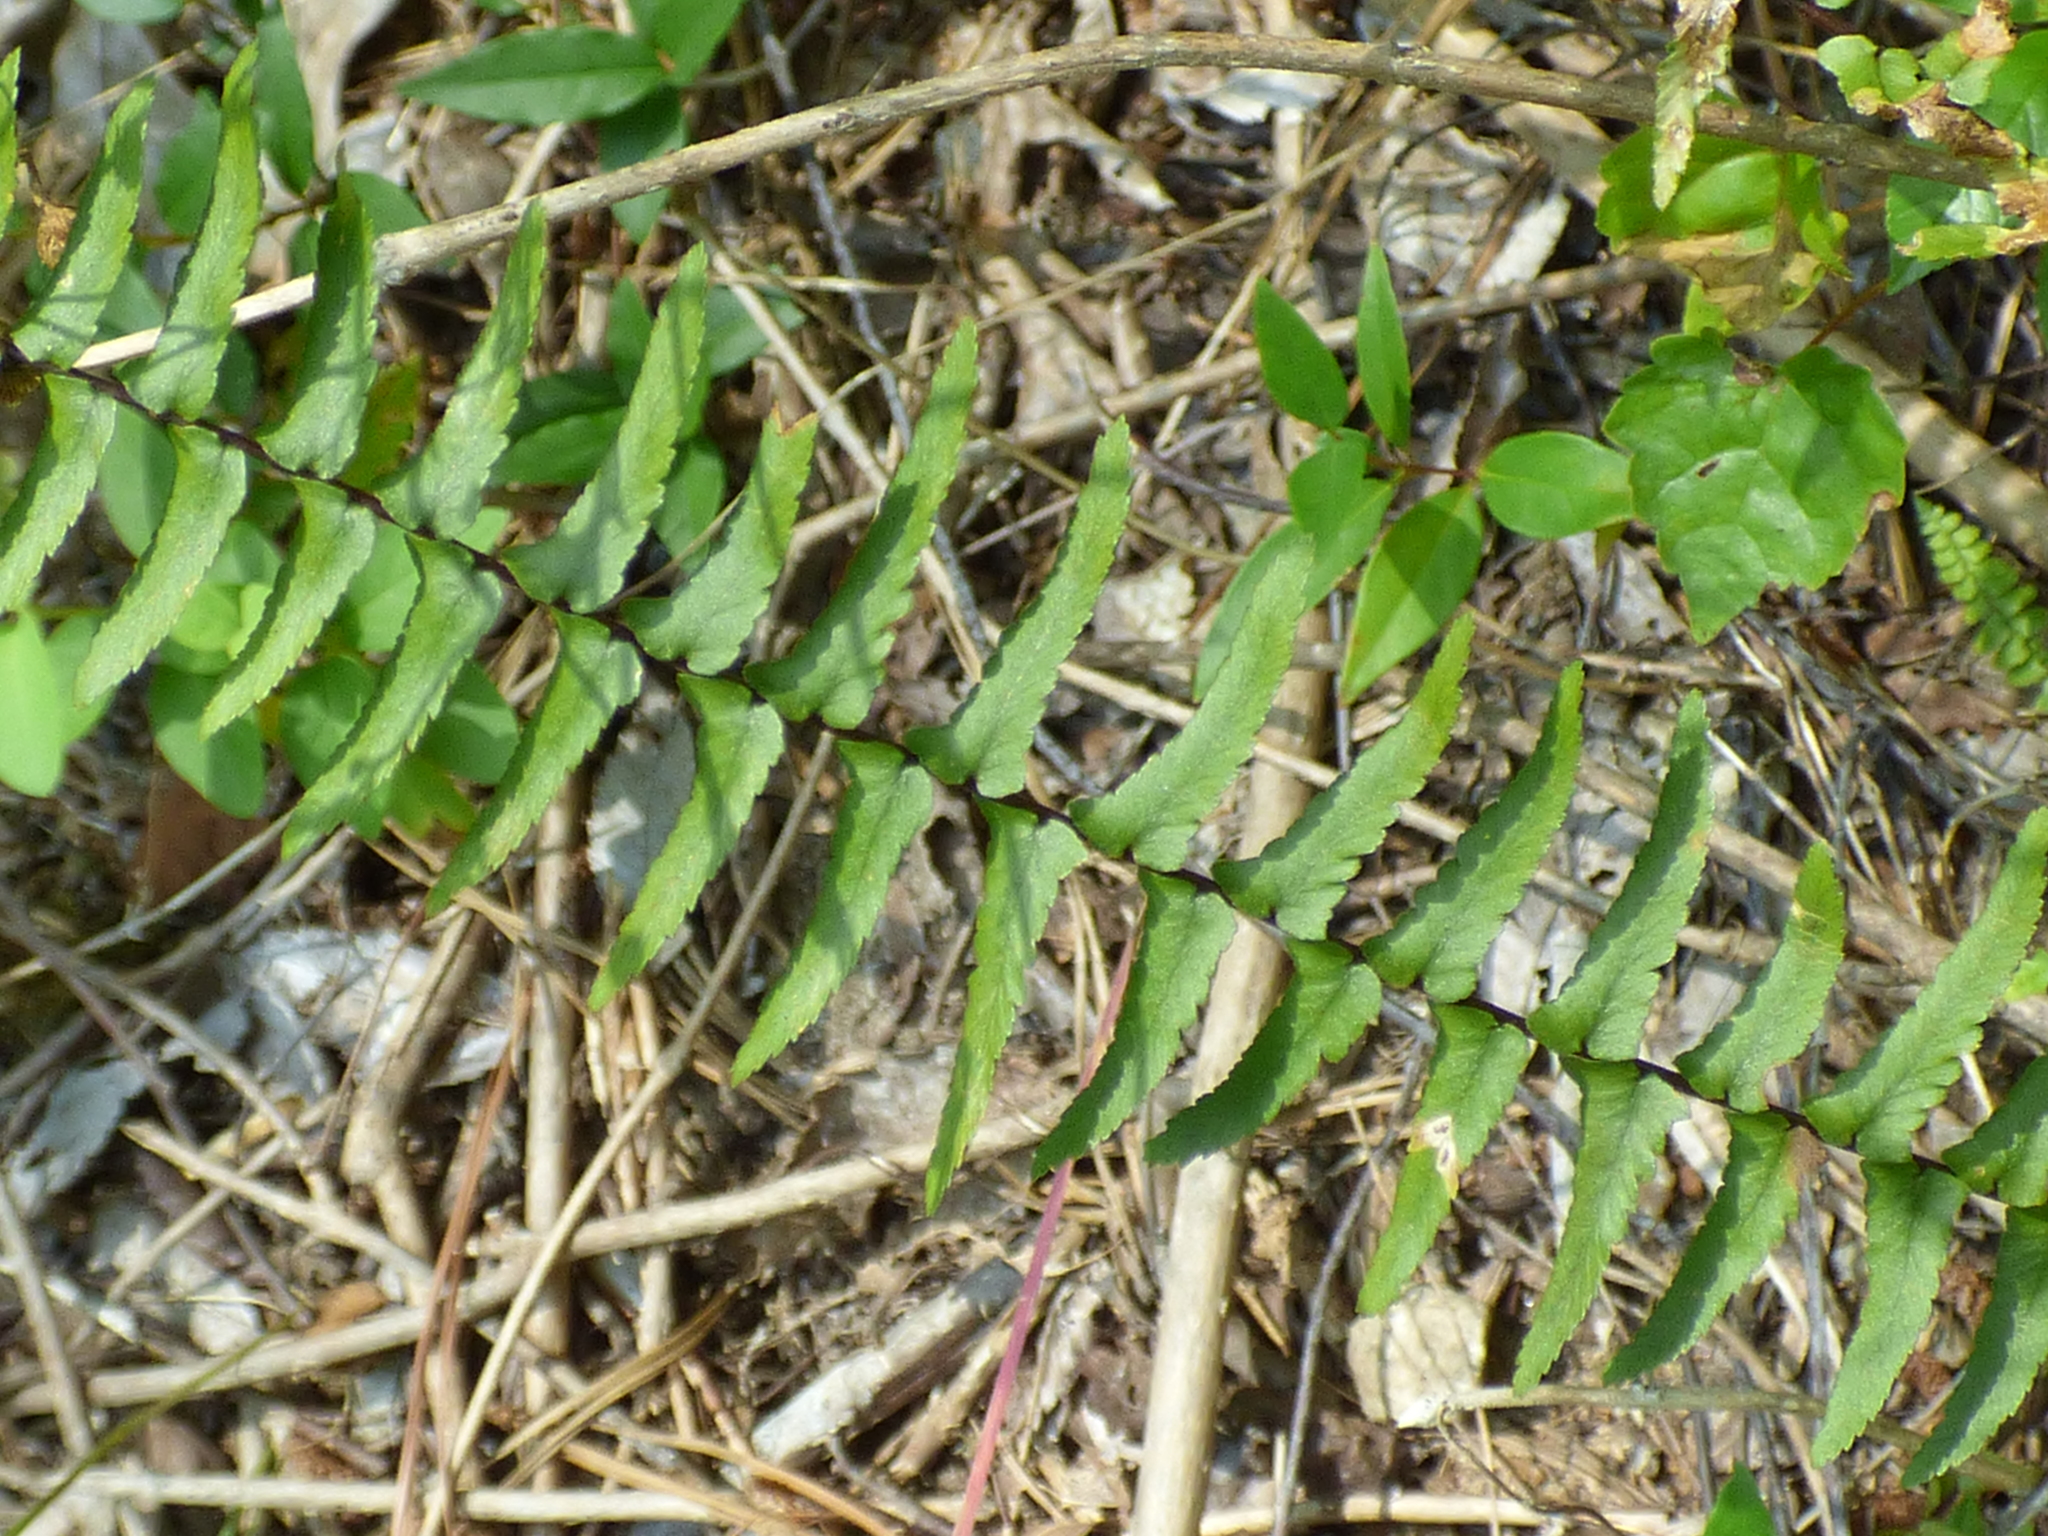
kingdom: Plantae
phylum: Tracheophyta
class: Polypodiopsida
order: Polypodiales
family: Aspleniaceae
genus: Asplenium
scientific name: Asplenium platyneuron
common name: Ebony spleenwort
